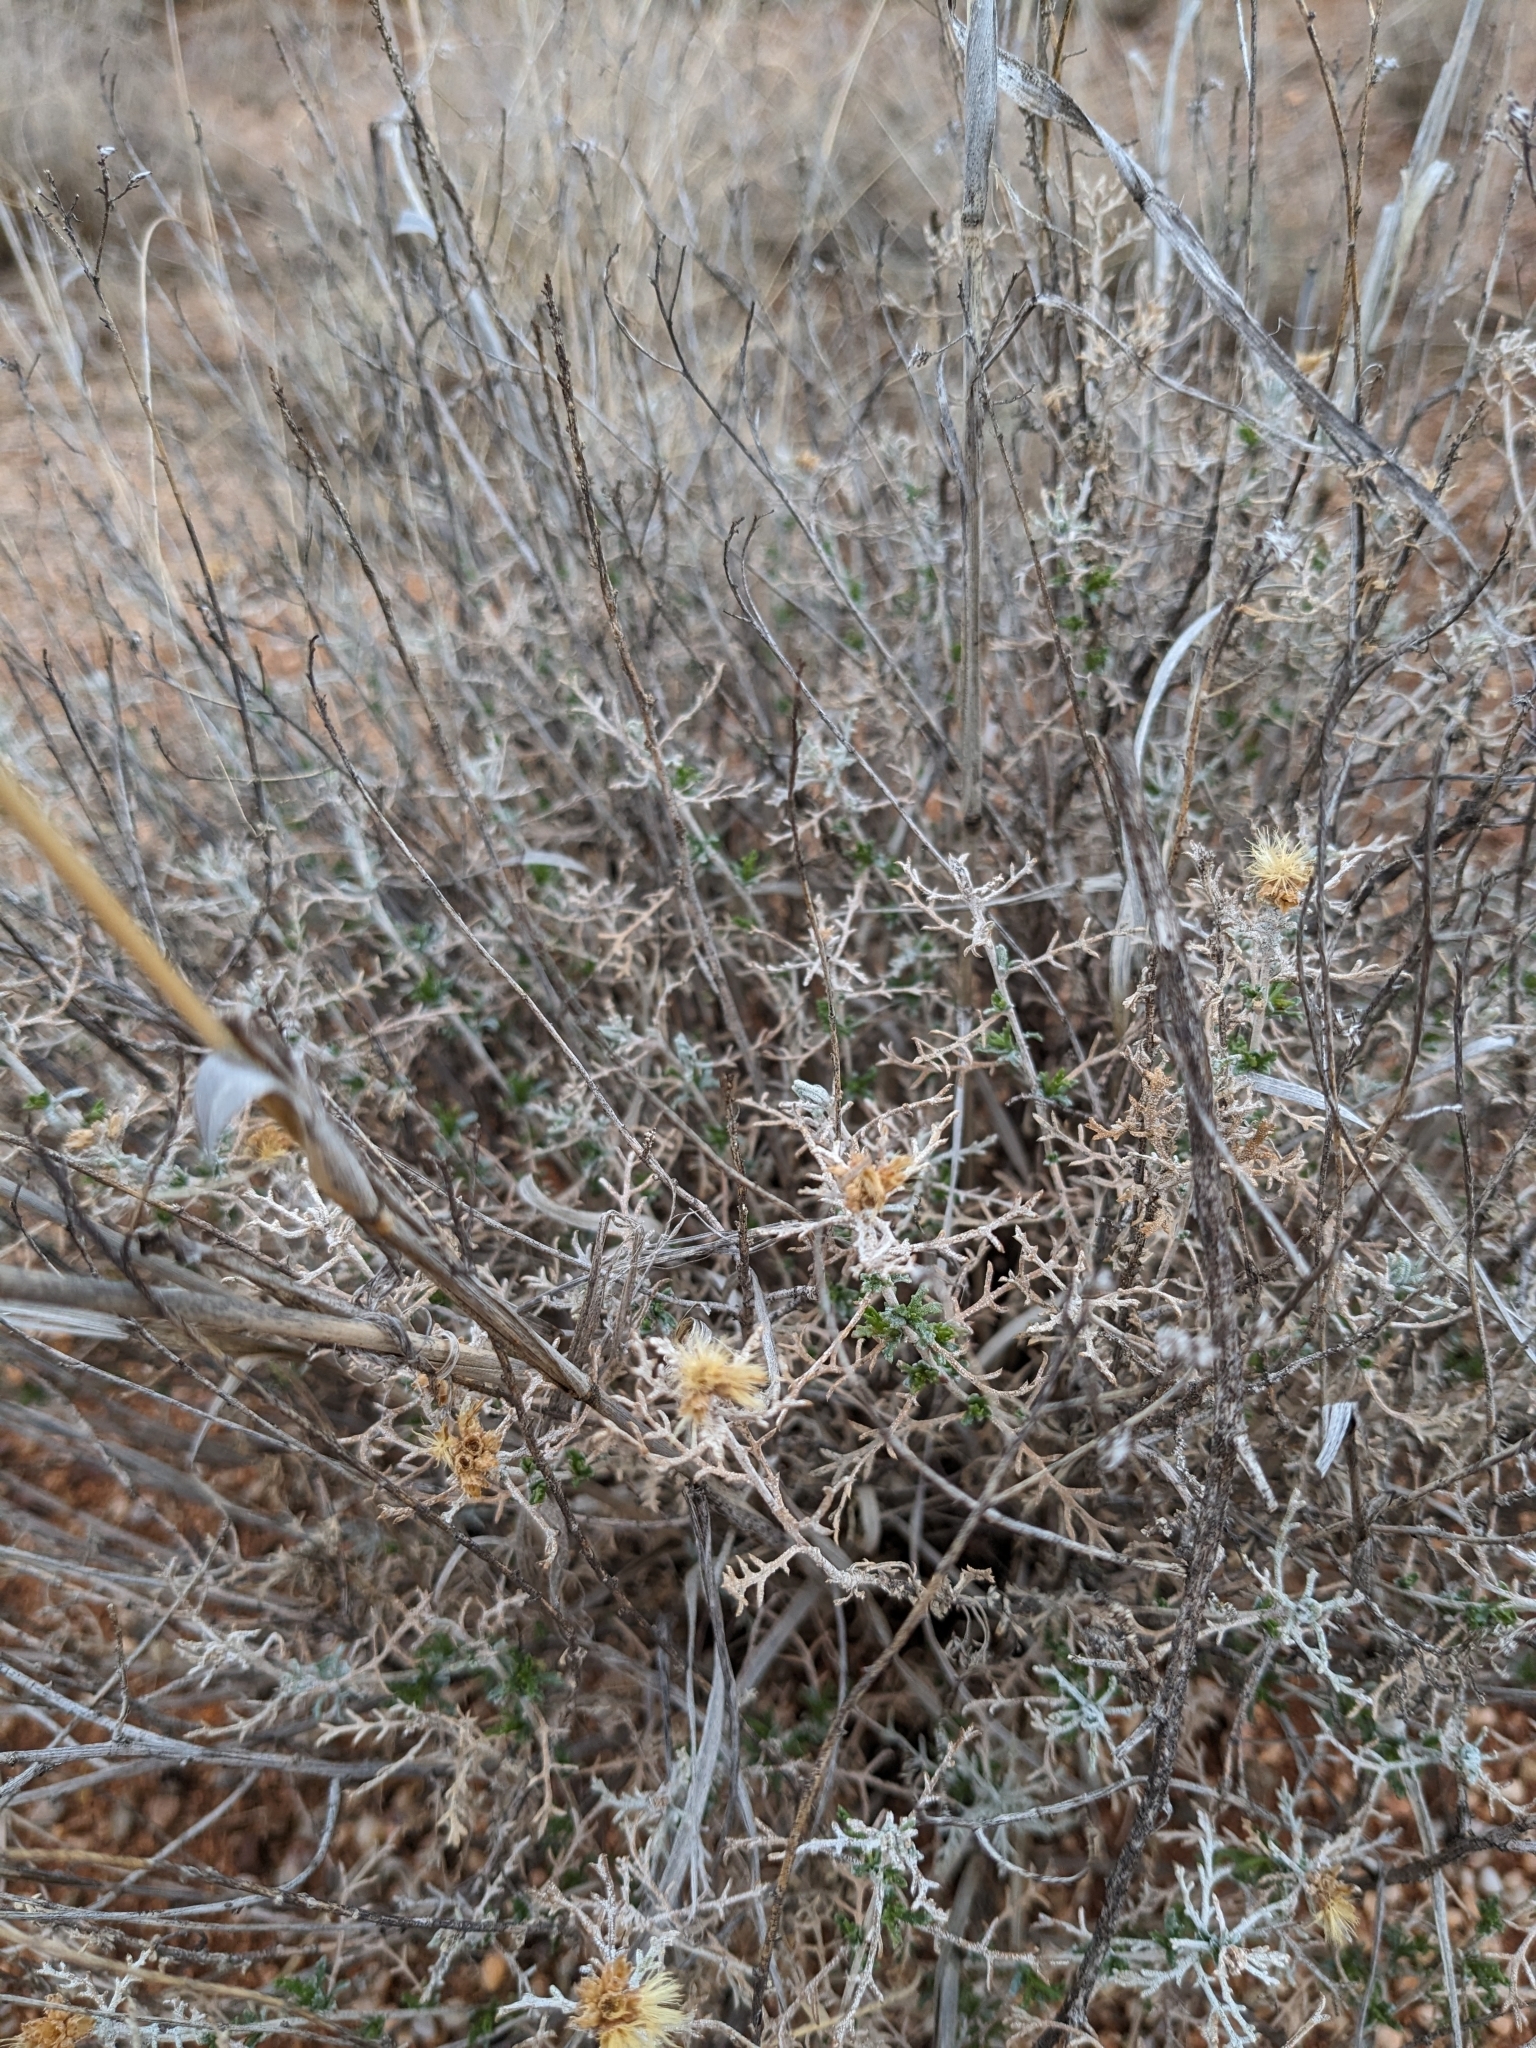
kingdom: Plantae
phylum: Tracheophyta
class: Magnoliopsida
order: Asterales
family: Asteraceae
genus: Isocoma
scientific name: Isocoma tenuisecta
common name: Burroweed
